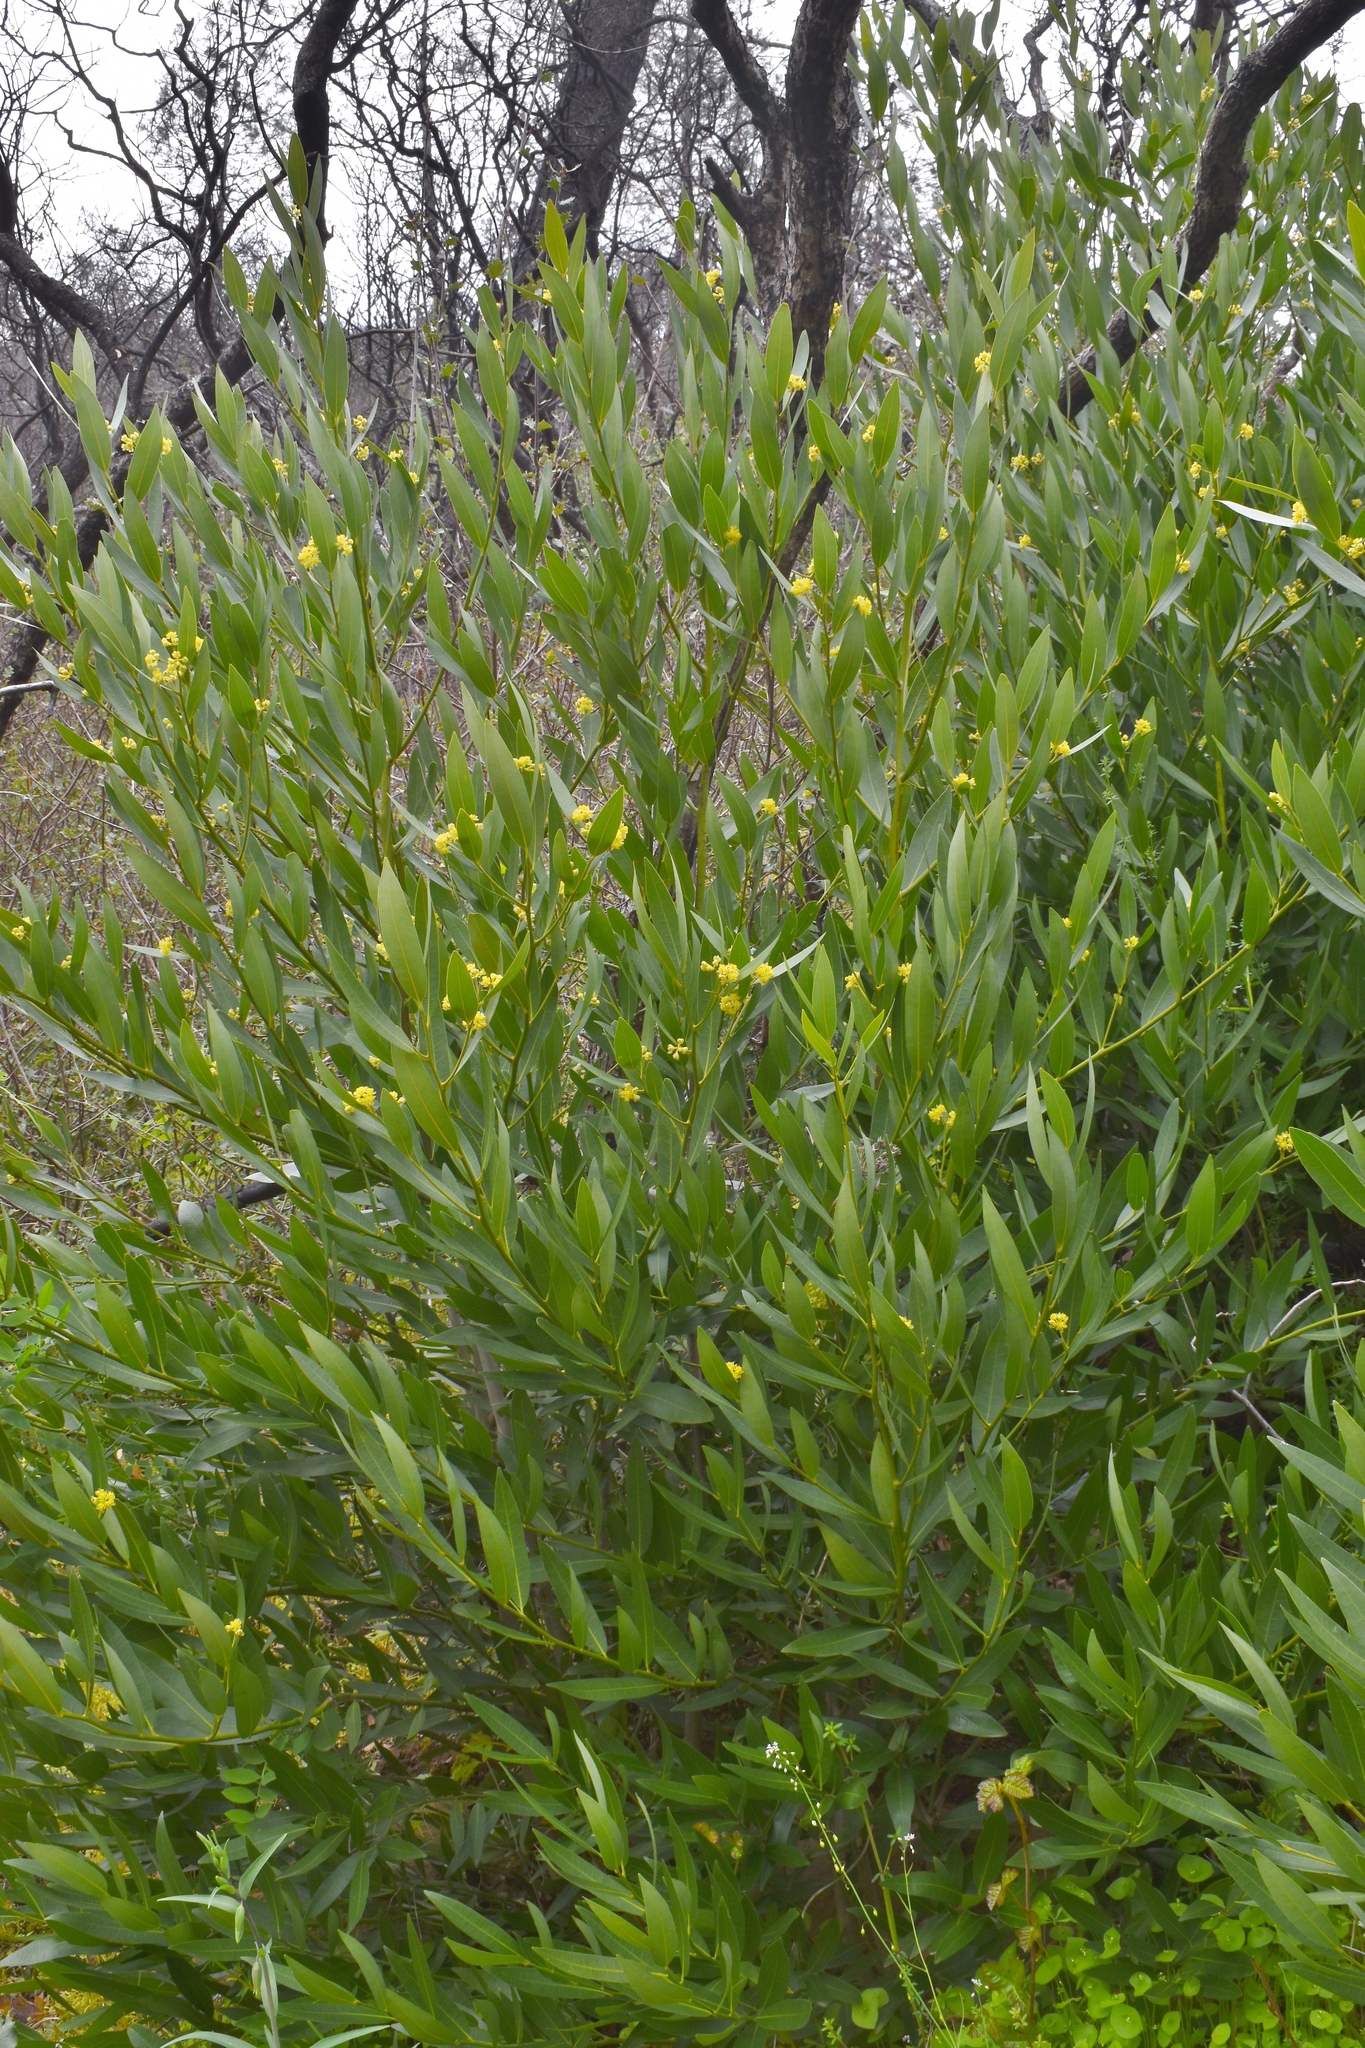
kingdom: Plantae
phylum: Tracheophyta
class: Magnoliopsida
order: Laurales
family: Lauraceae
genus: Umbellularia
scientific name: Umbellularia californica
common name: California bay
